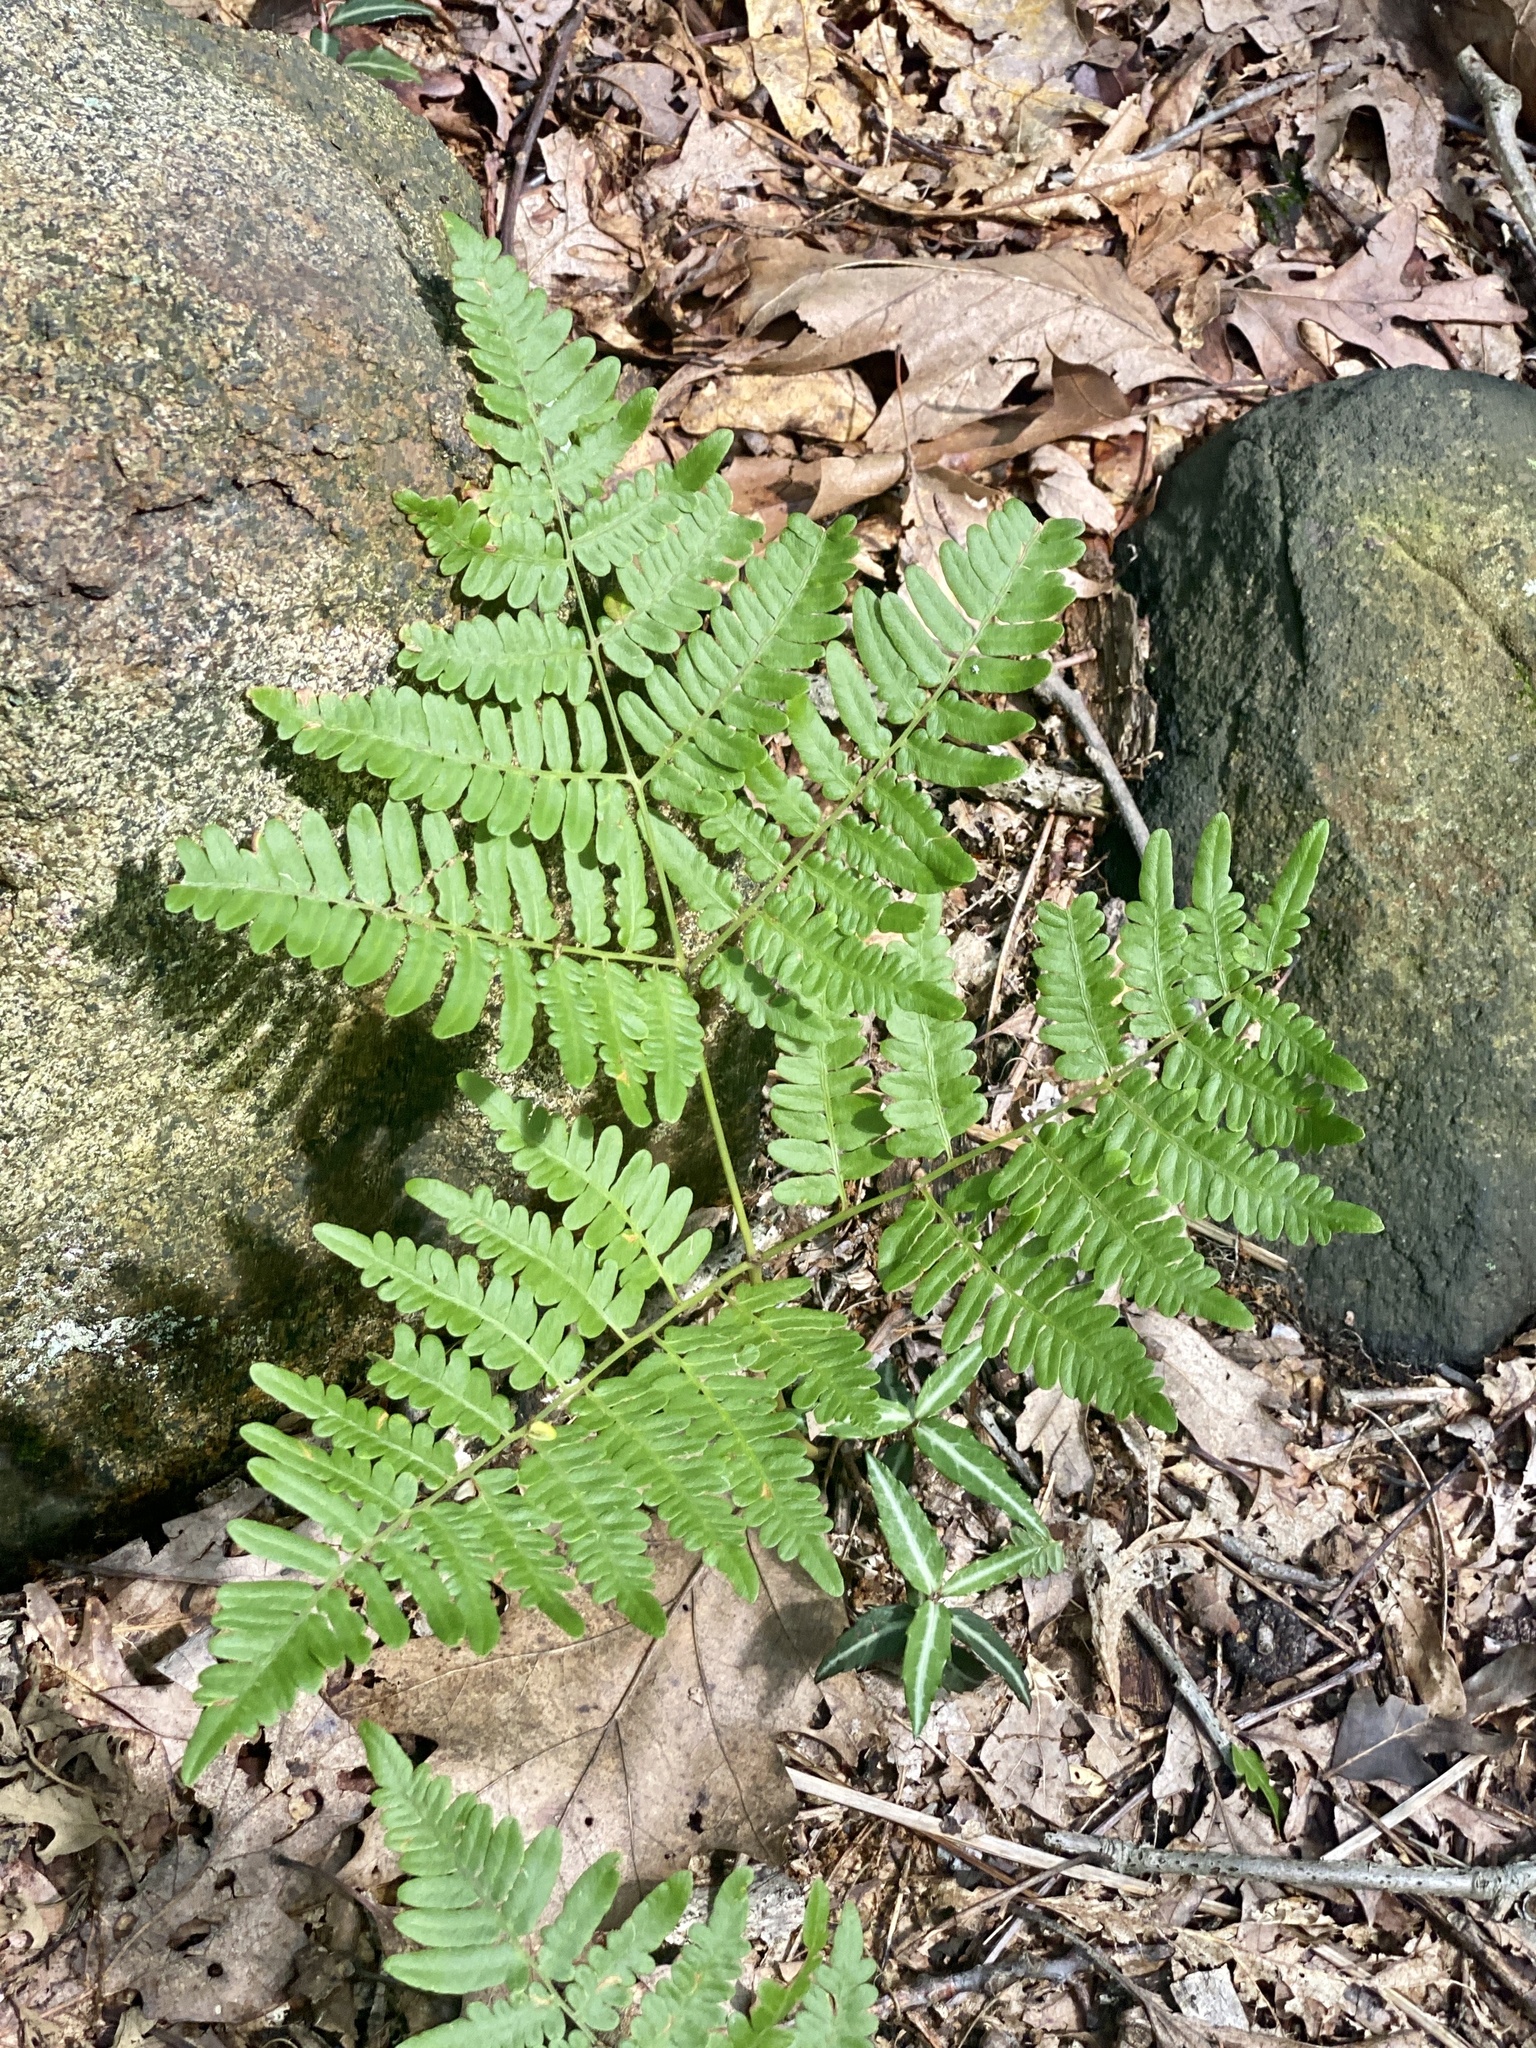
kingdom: Plantae
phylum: Tracheophyta
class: Polypodiopsida
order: Polypodiales
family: Dennstaedtiaceae
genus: Pteridium
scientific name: Pteridium aquilinum
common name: Bracken
